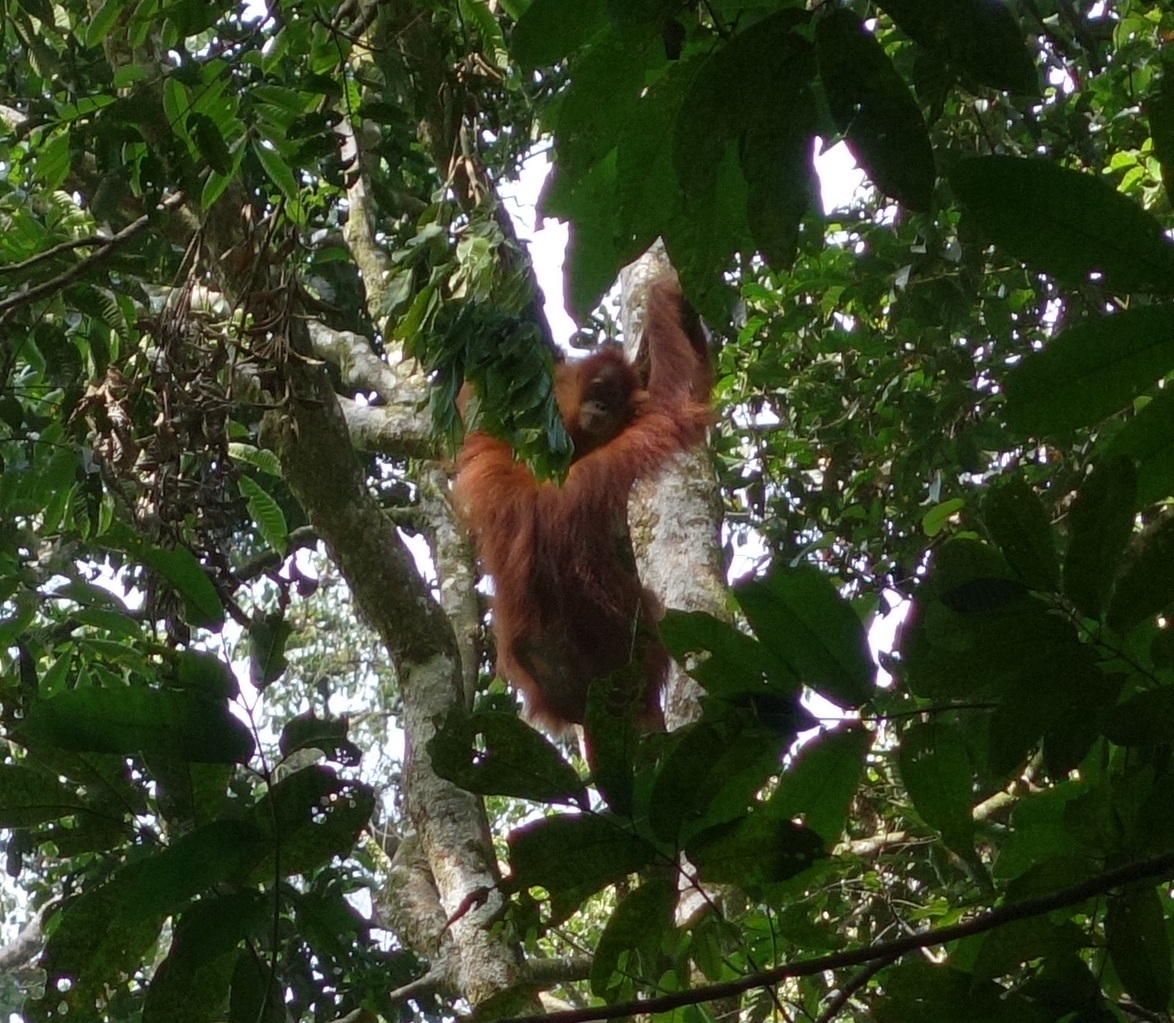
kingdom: Animalia
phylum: Chordata
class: Mammalia
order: Primates
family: Hominidae
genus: Pongo
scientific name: Pongo abelii
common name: Sumatran orangutan
